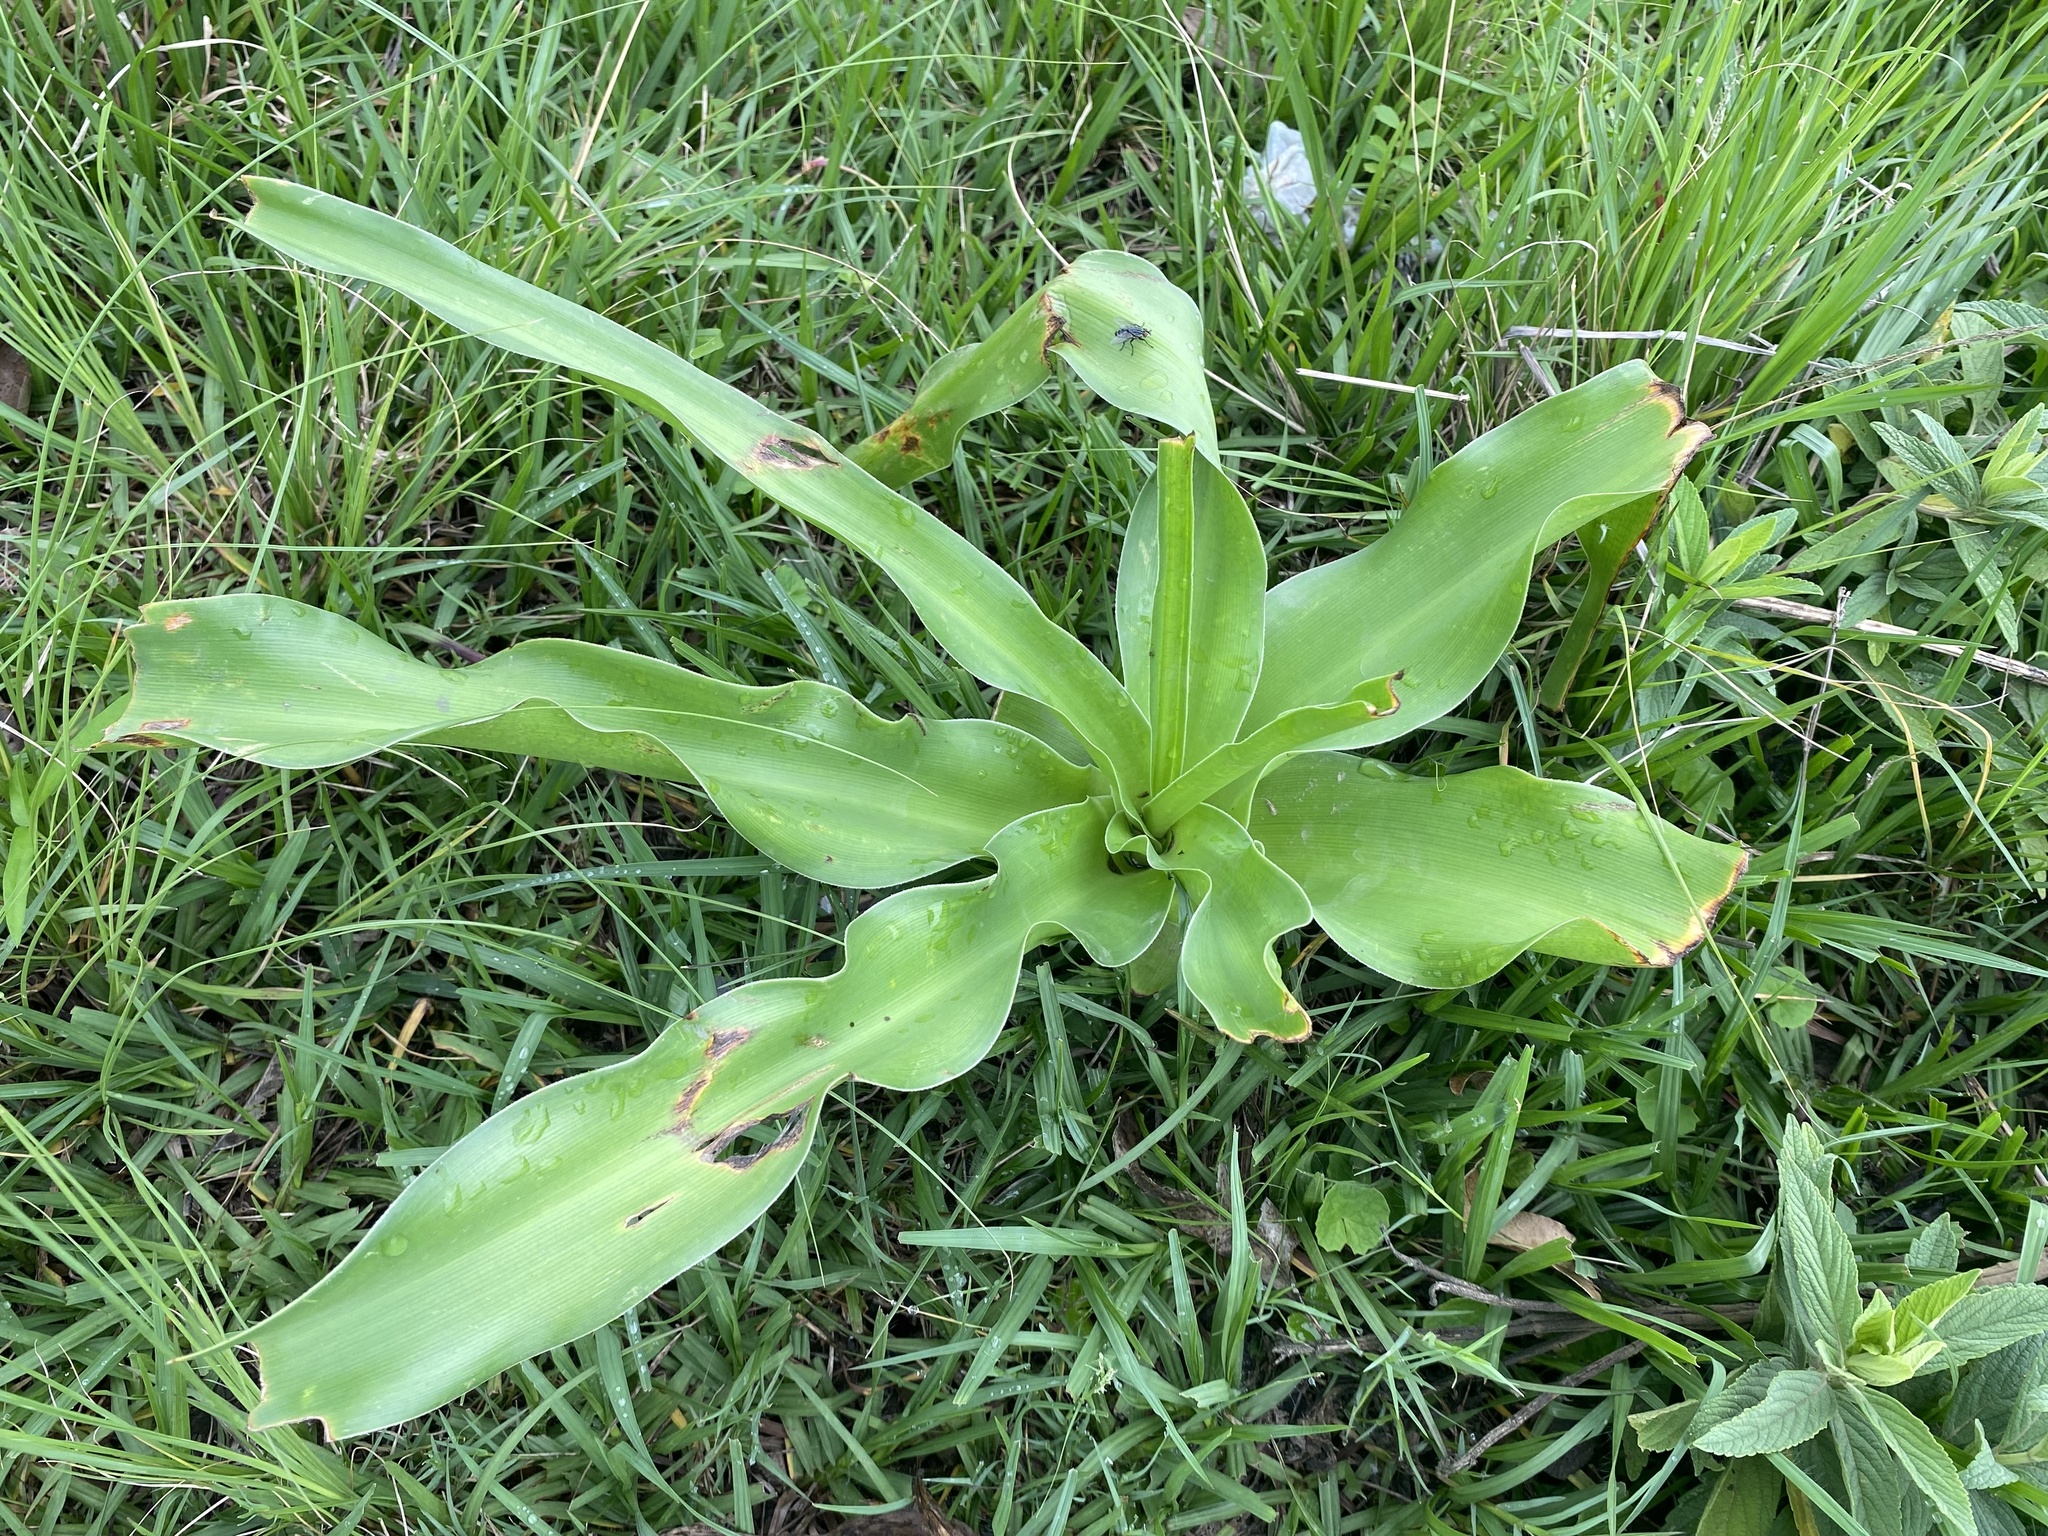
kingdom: Plantae
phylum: Tracheophyta
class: Liliopsida
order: Asparagales
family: Amaryllidaceae
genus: Crinum
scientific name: Crinum macowanii
